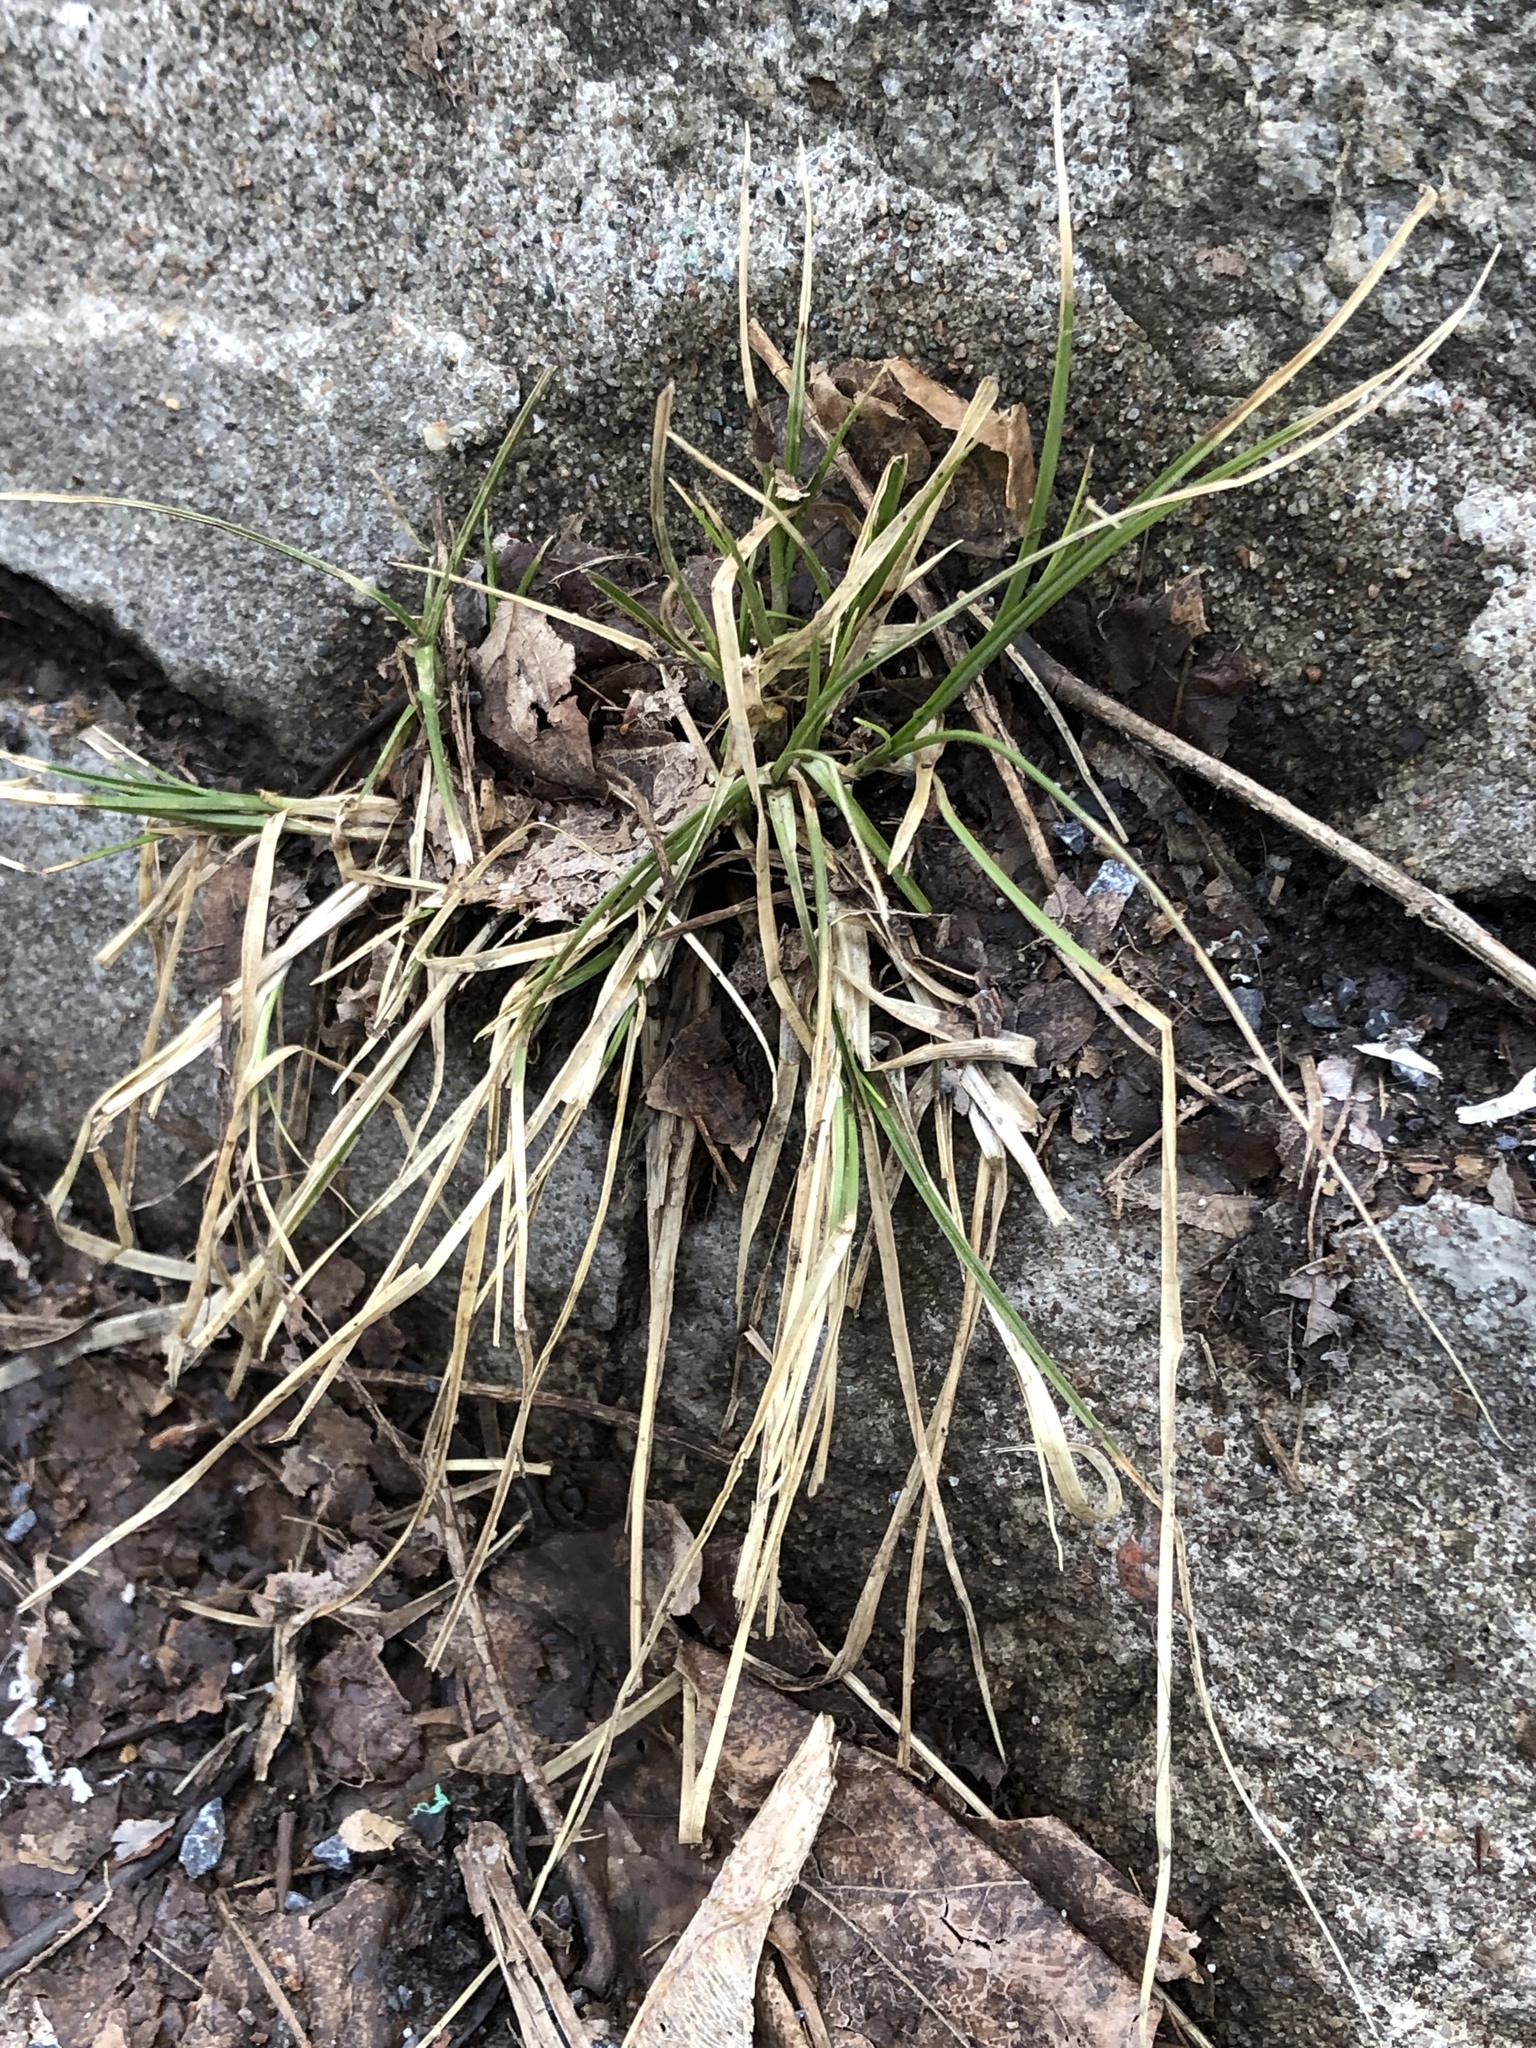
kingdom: Plantae
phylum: Tracheophyta
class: Liliopsida
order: Poales
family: Cyperaceae
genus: Carex
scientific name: Carex
